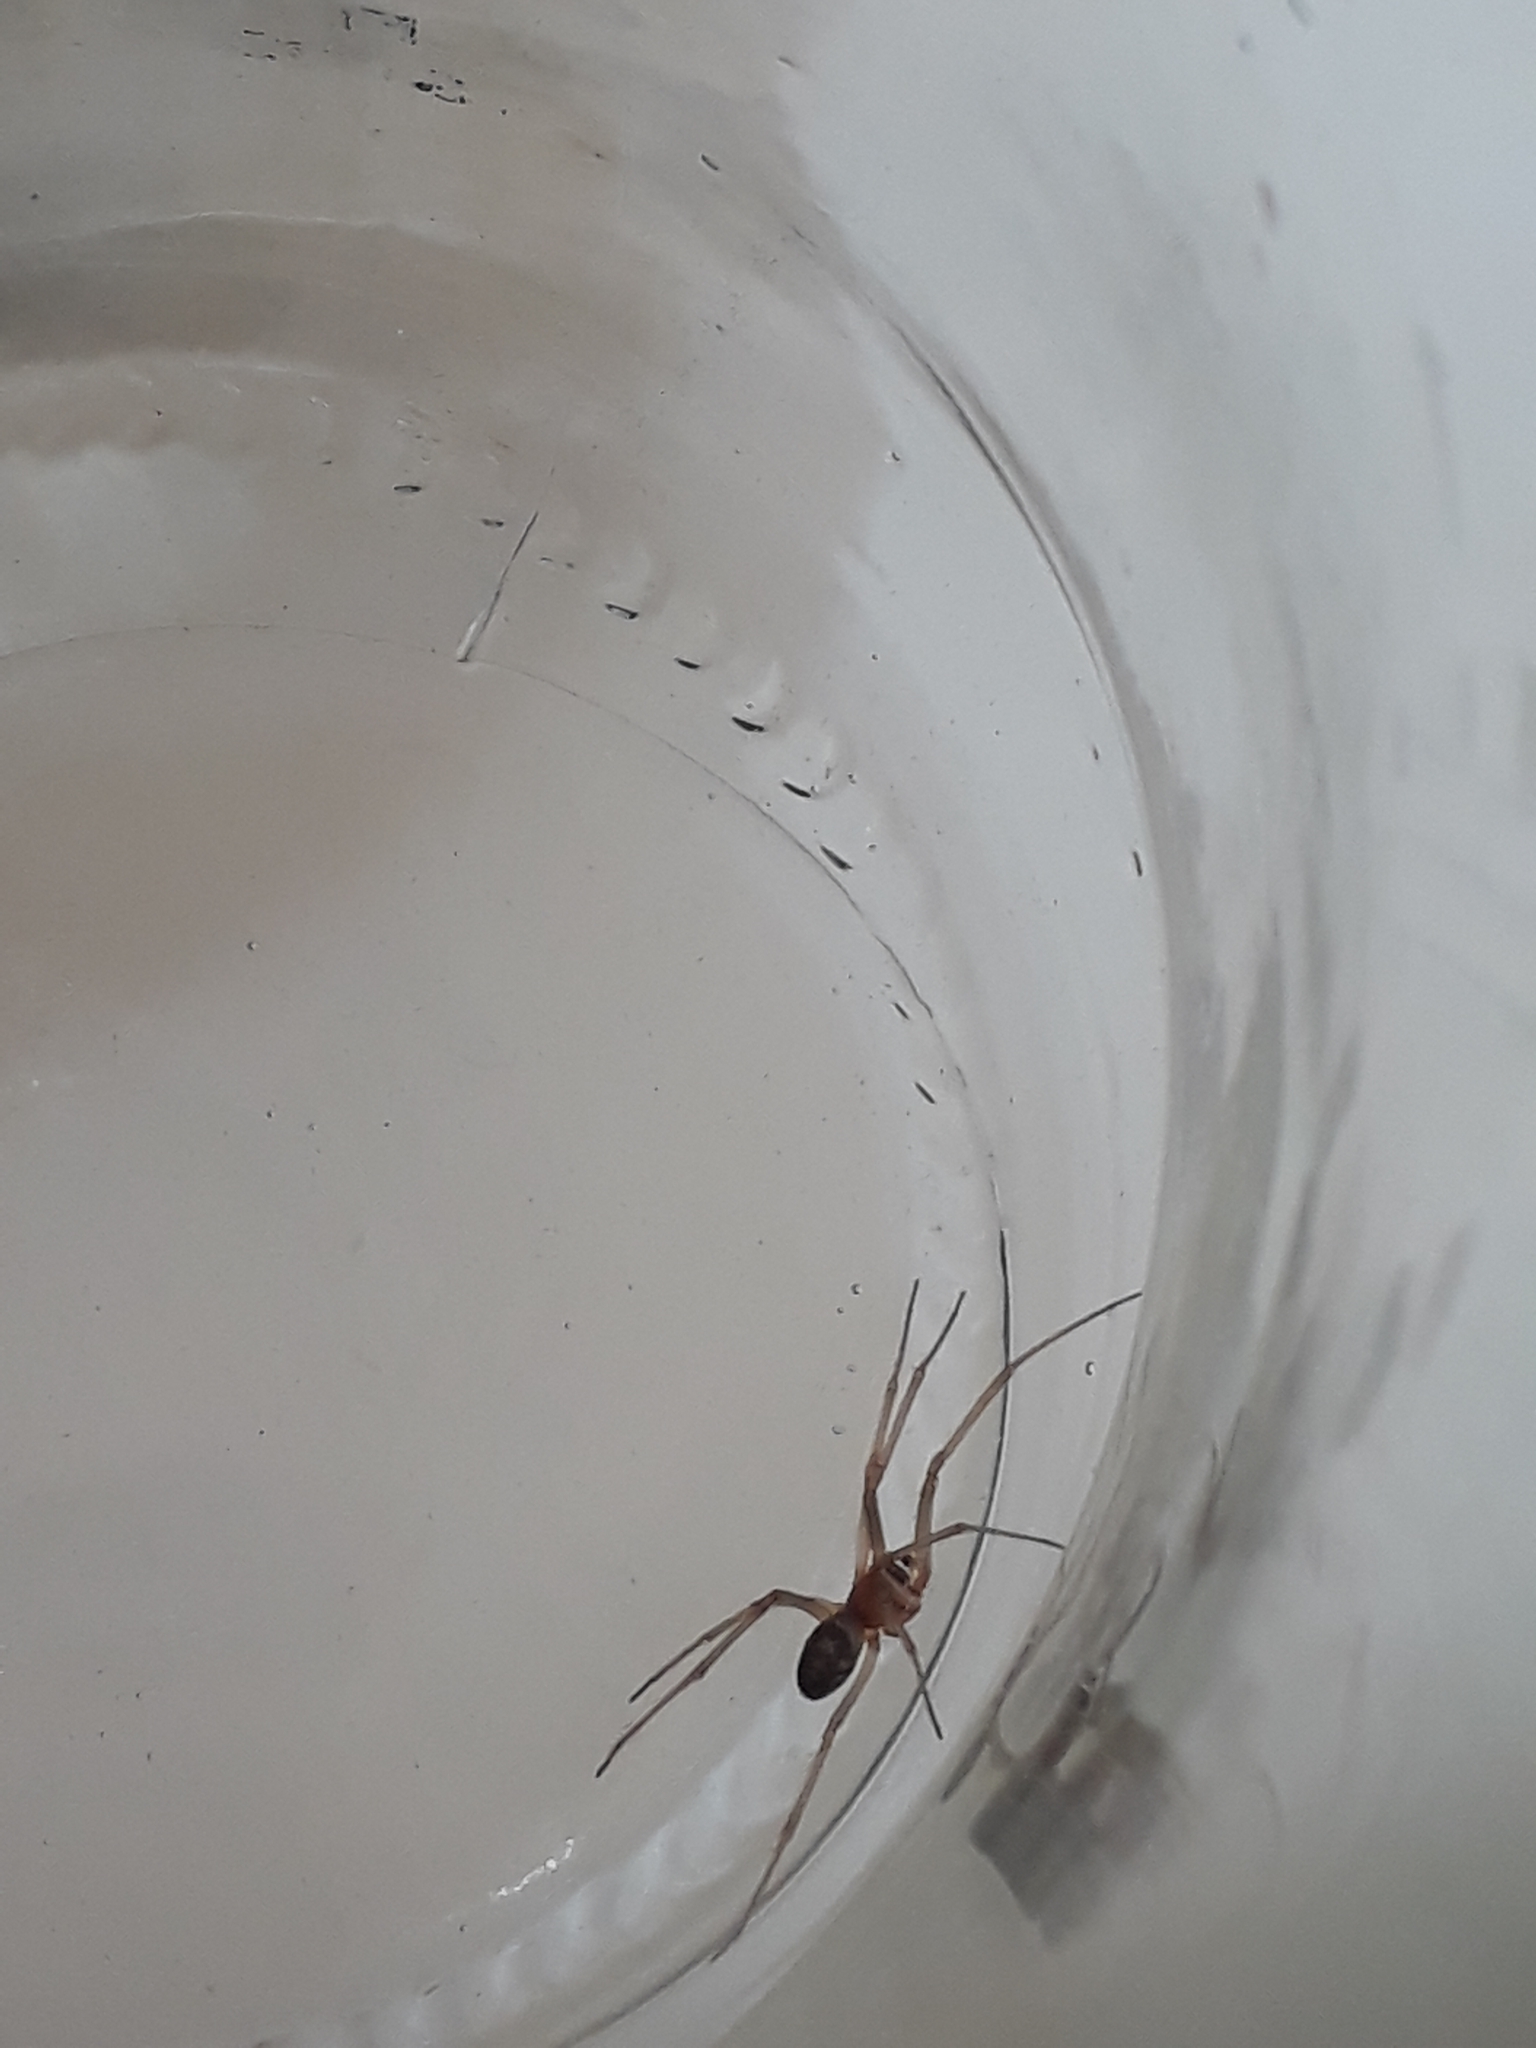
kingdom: Animalia
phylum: Arthropoda
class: Arachnida
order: Araneae
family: Theridiidae
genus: Steatoda
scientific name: Steatoda grossa
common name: False black widow
